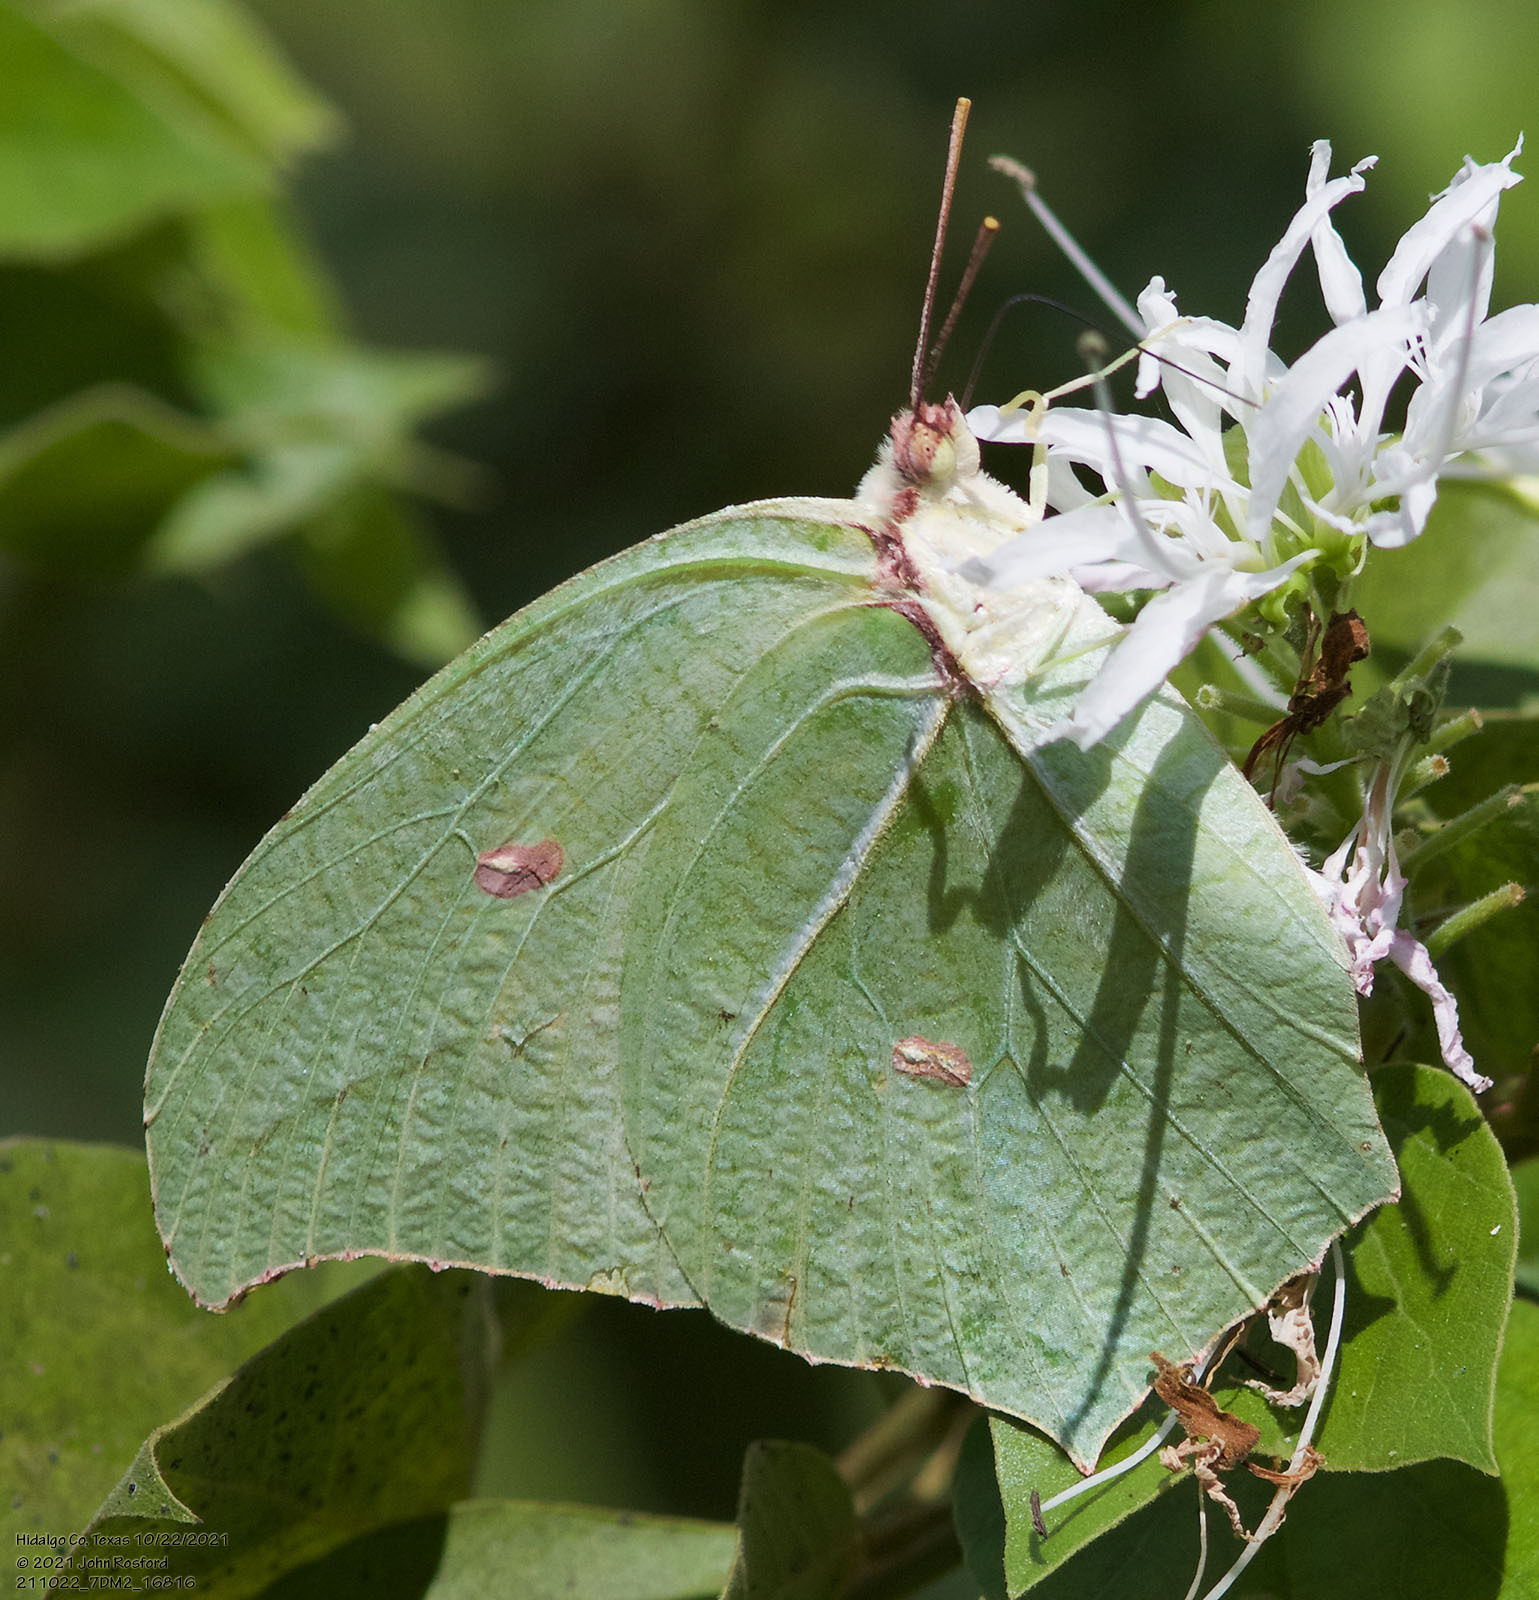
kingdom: Animalia
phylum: Arthropoda
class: Insecta
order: Lepidoptera
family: Pieridae
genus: Anteos
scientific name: Anteos maerula
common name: Angled sulphur
